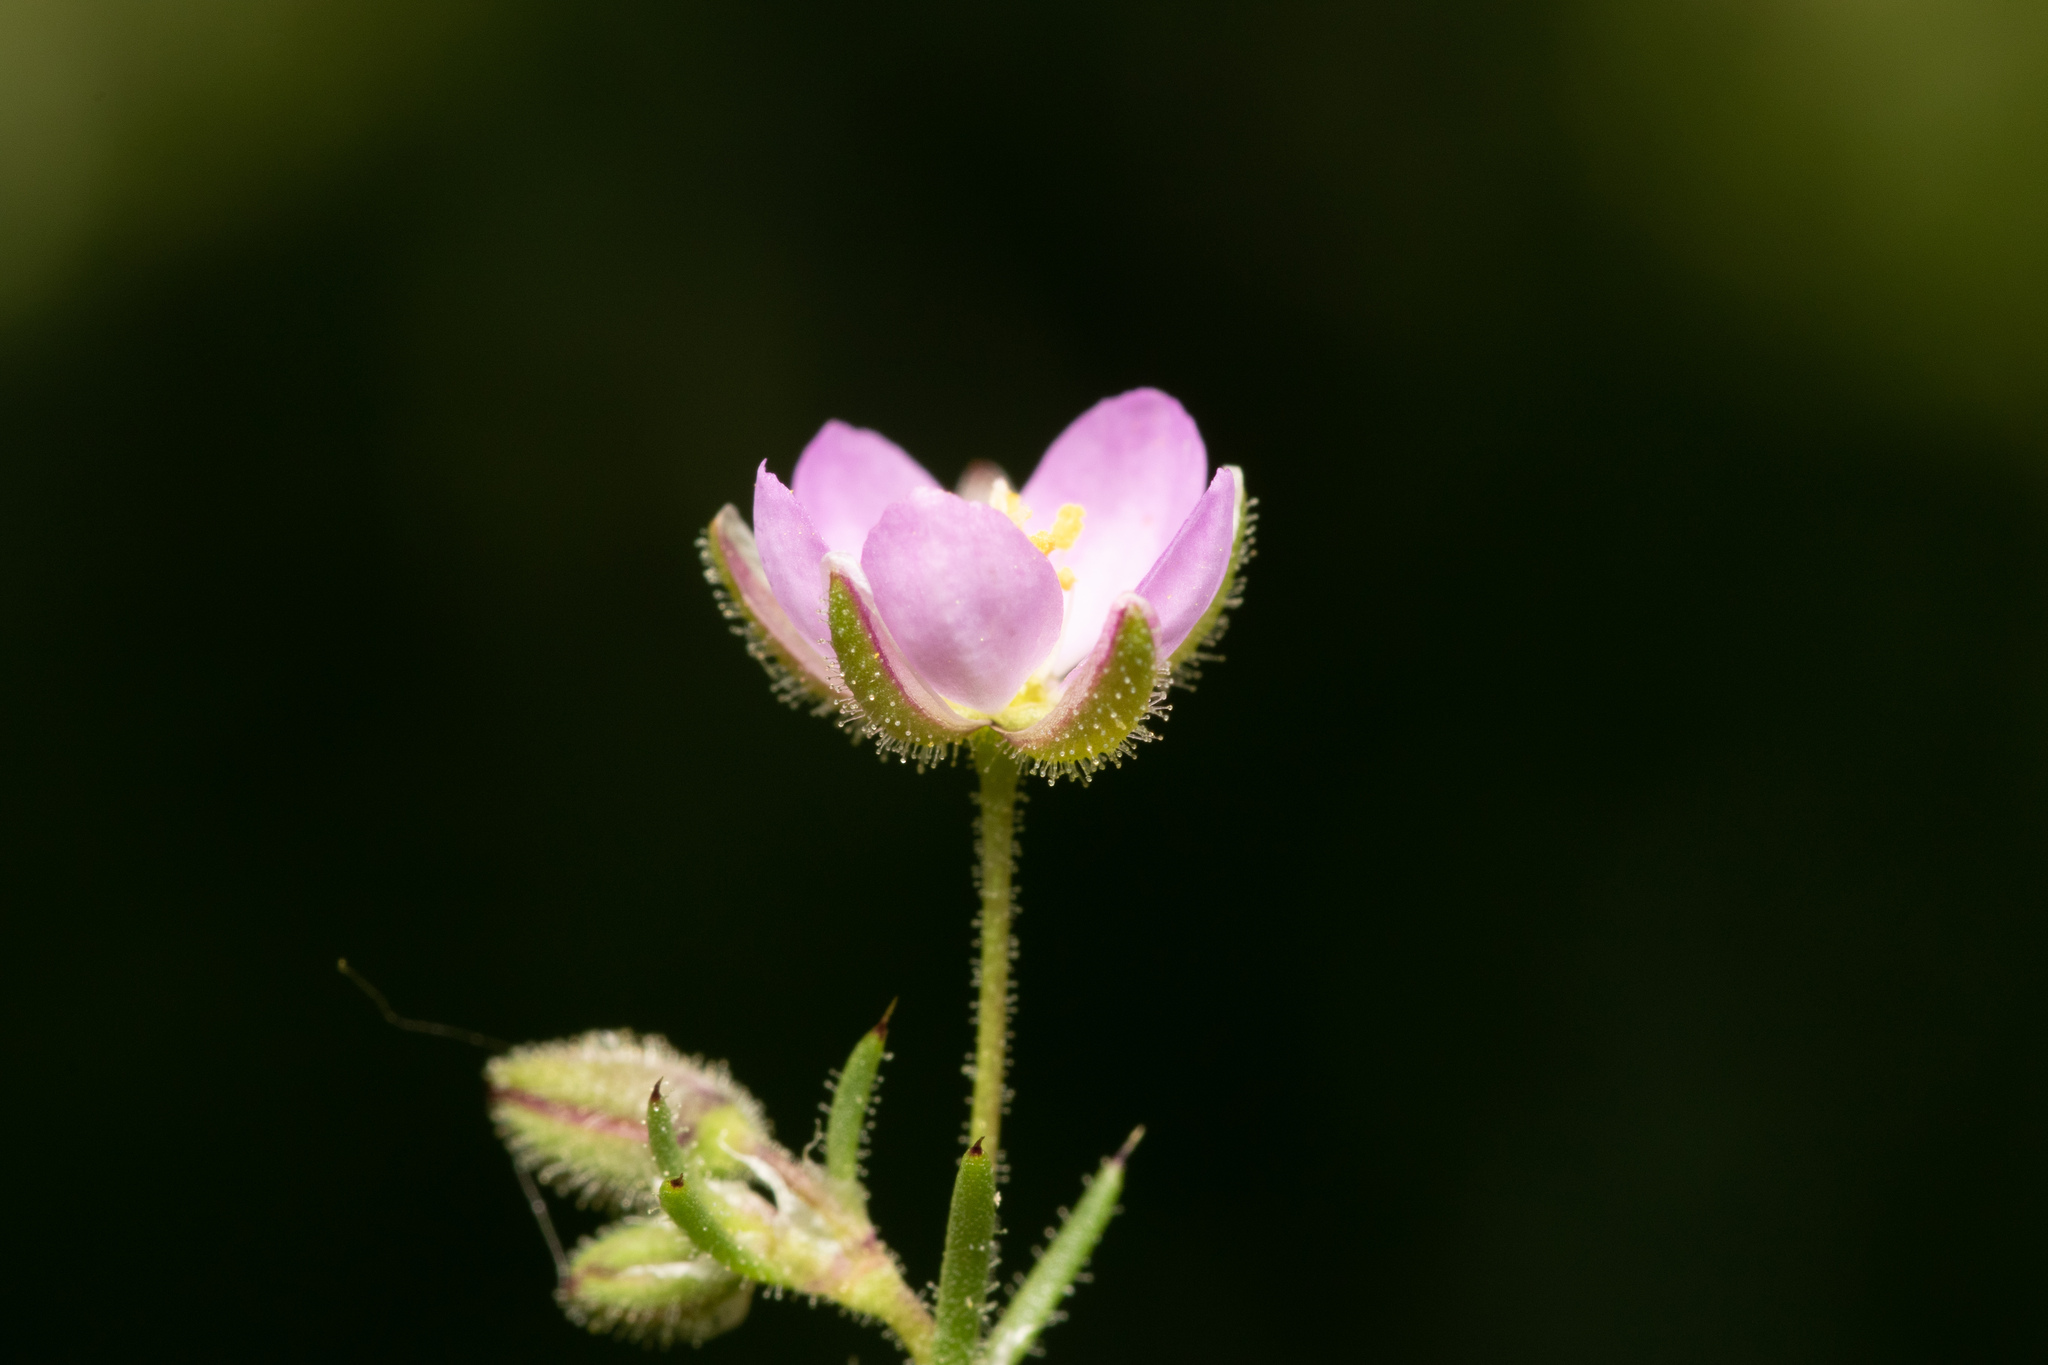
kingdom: Plantae
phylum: Tracheophyta
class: Magnoliopsida
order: Caryophyllales
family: Caryophyllaceae
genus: Spergularia
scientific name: Spergularia rubra
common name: Red sand-spurrey
